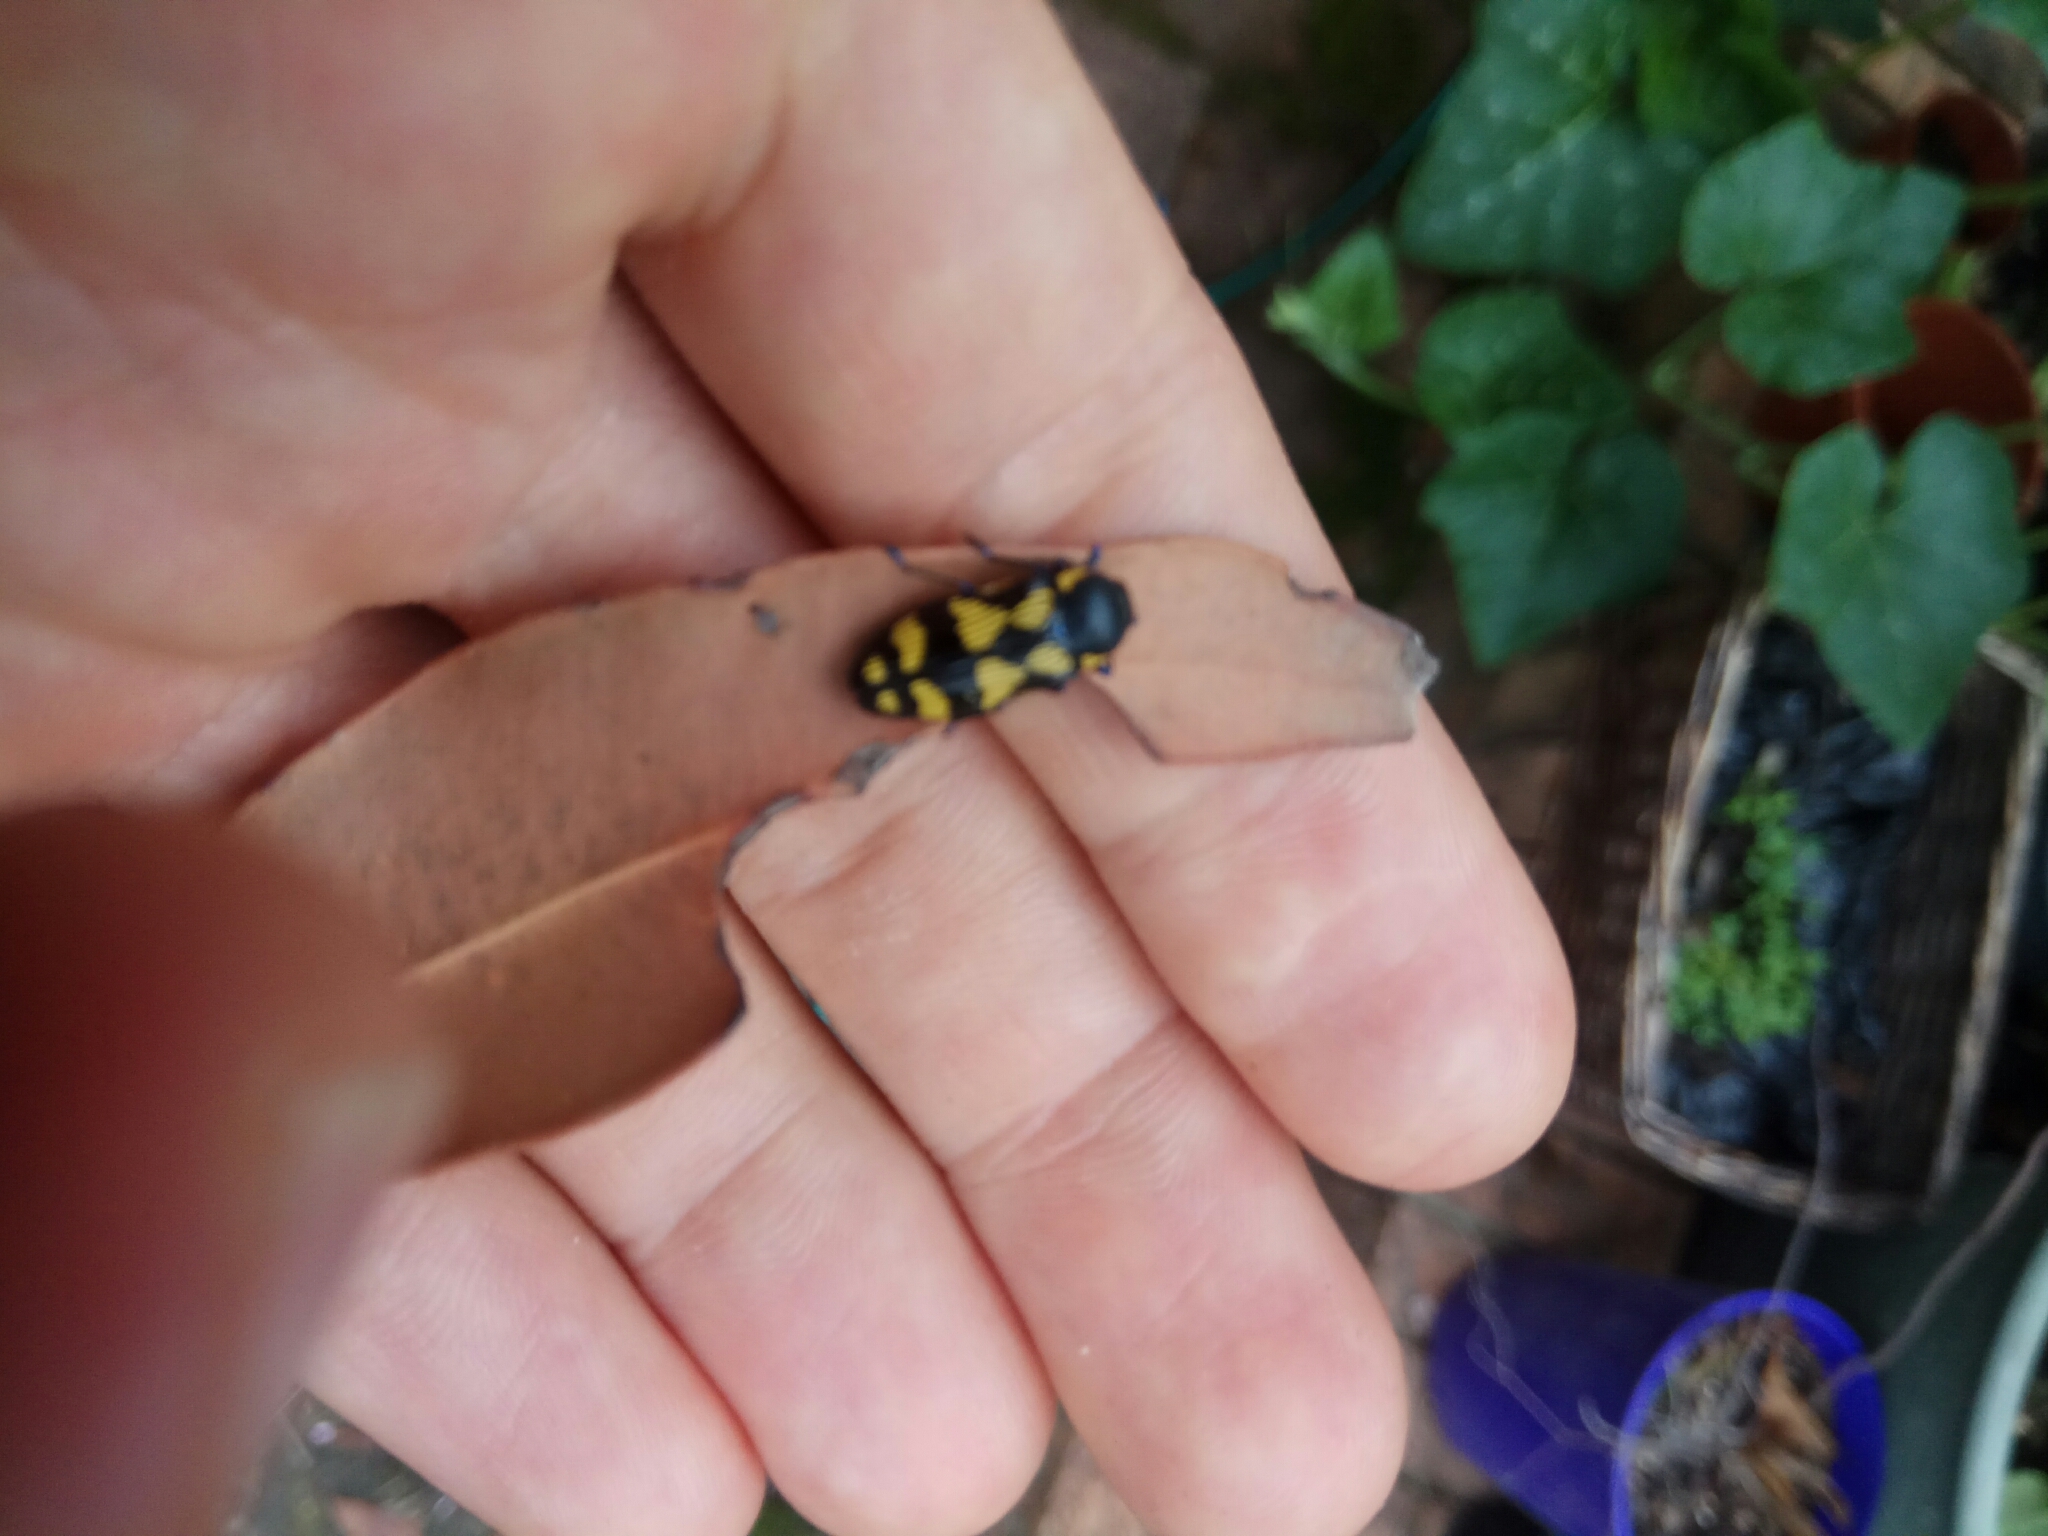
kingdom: Animalia
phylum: Arthropoda
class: Insecta
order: Coleoptera
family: Buprestidae
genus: Castiarina
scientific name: Castiarina octospilota
